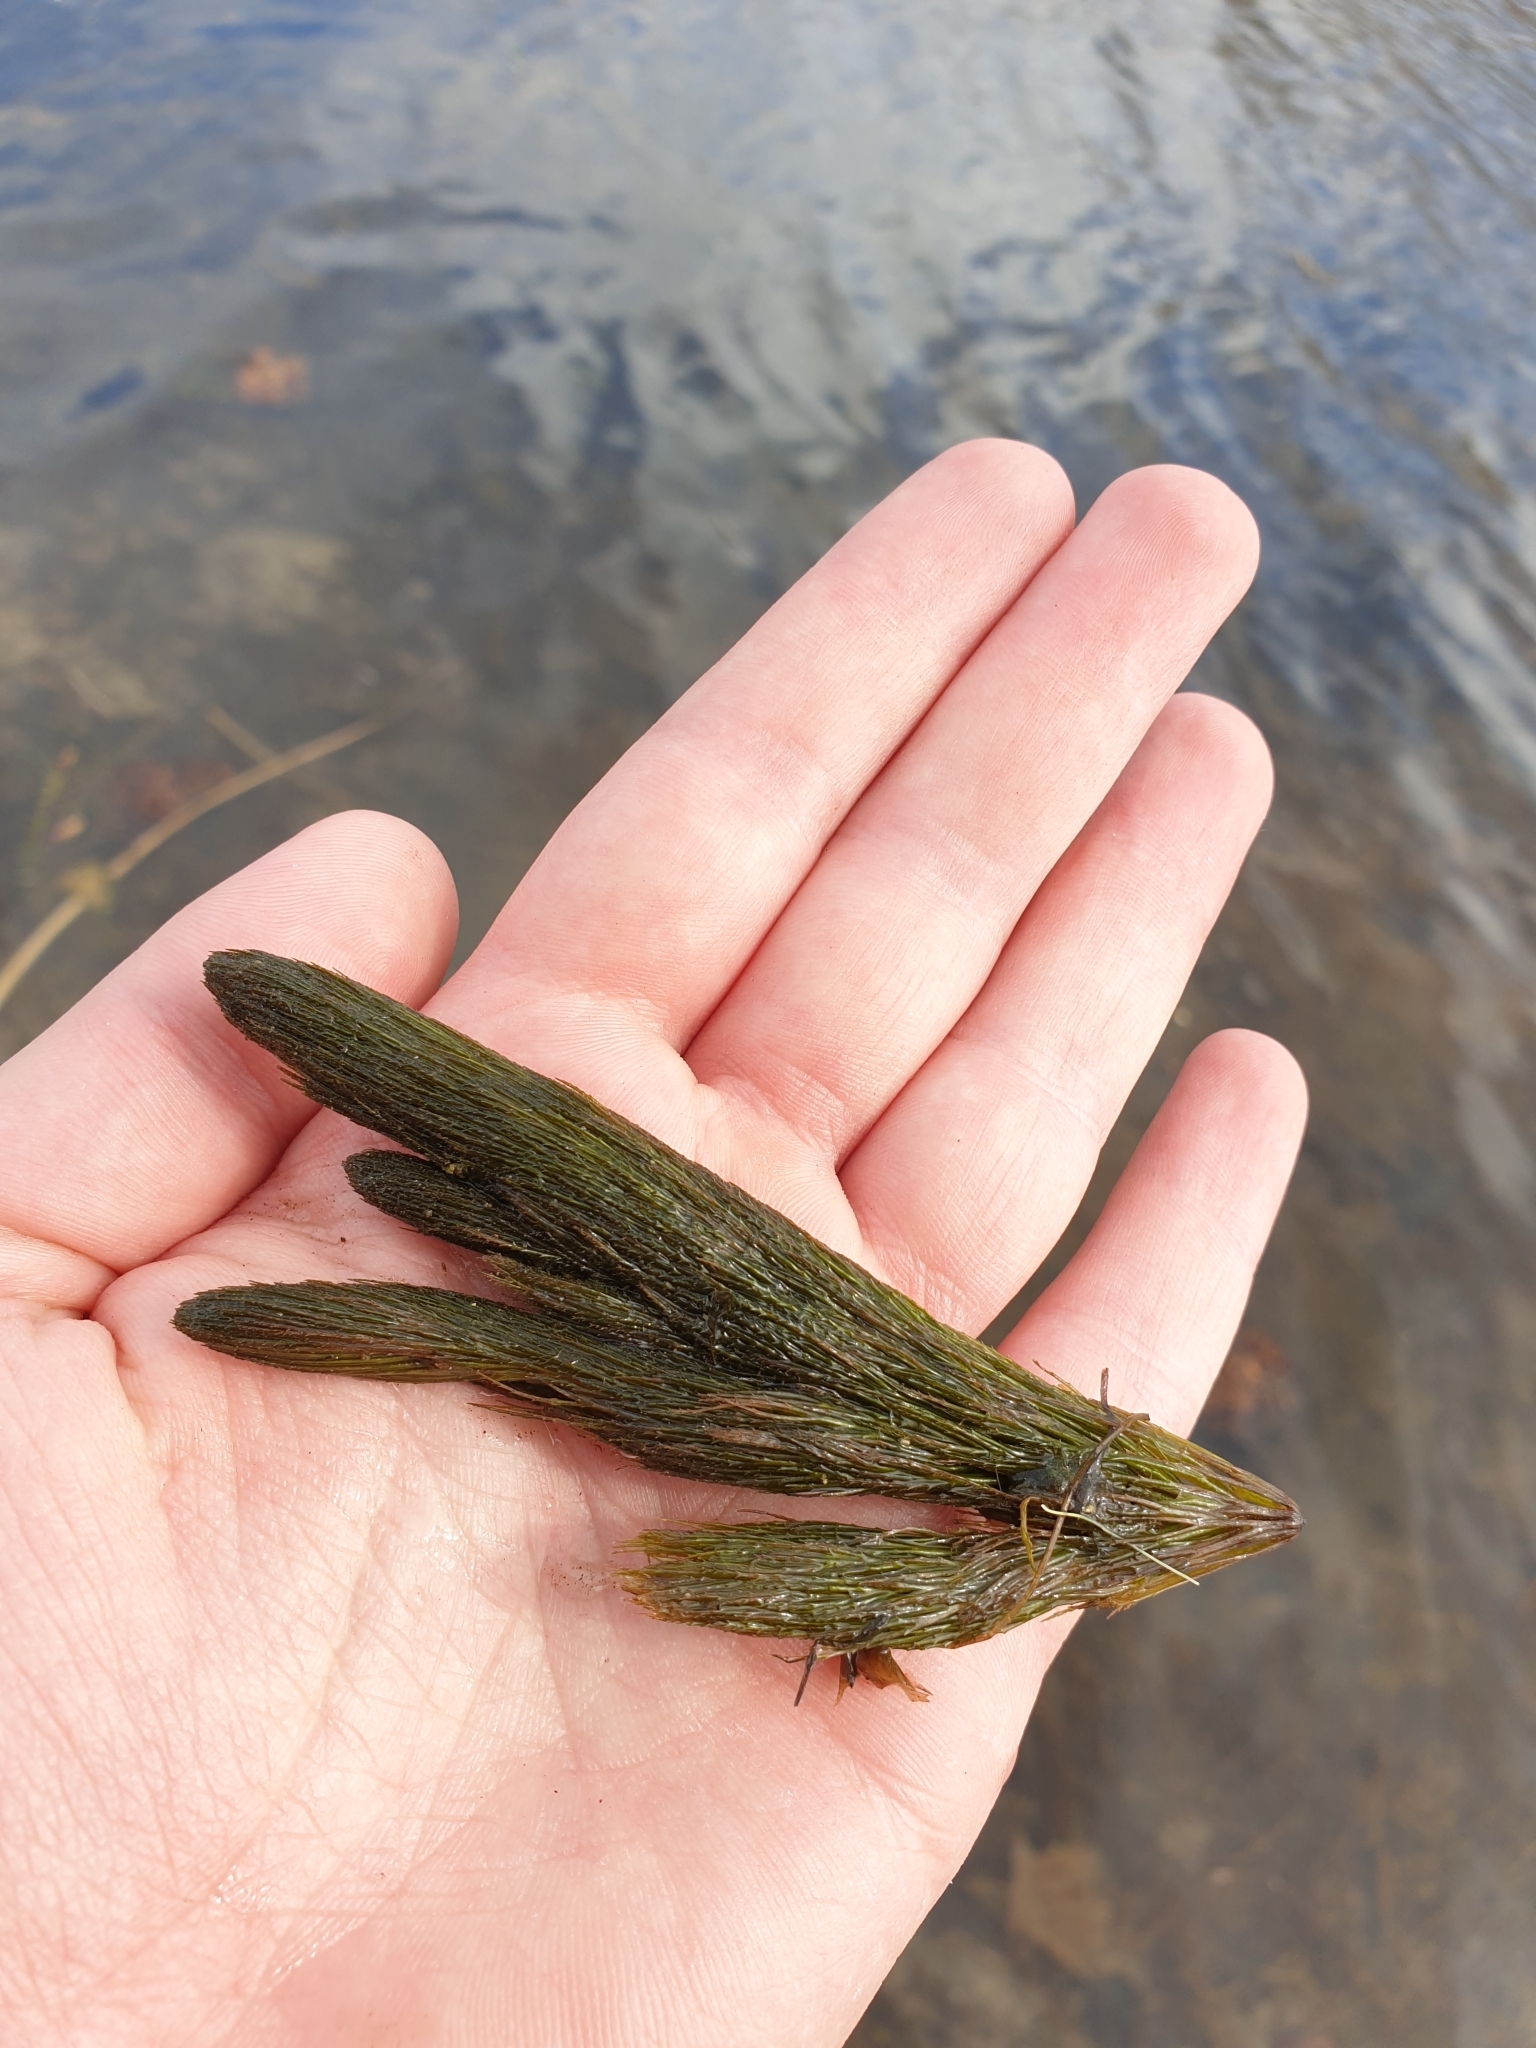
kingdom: Plantae
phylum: Tracheophyta
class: Magnoliopsida
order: Ceratophyllales
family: Ceratophyllaceae
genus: Ceratophyllum
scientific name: Ceratophyllum demersum
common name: Rigid hornwort
